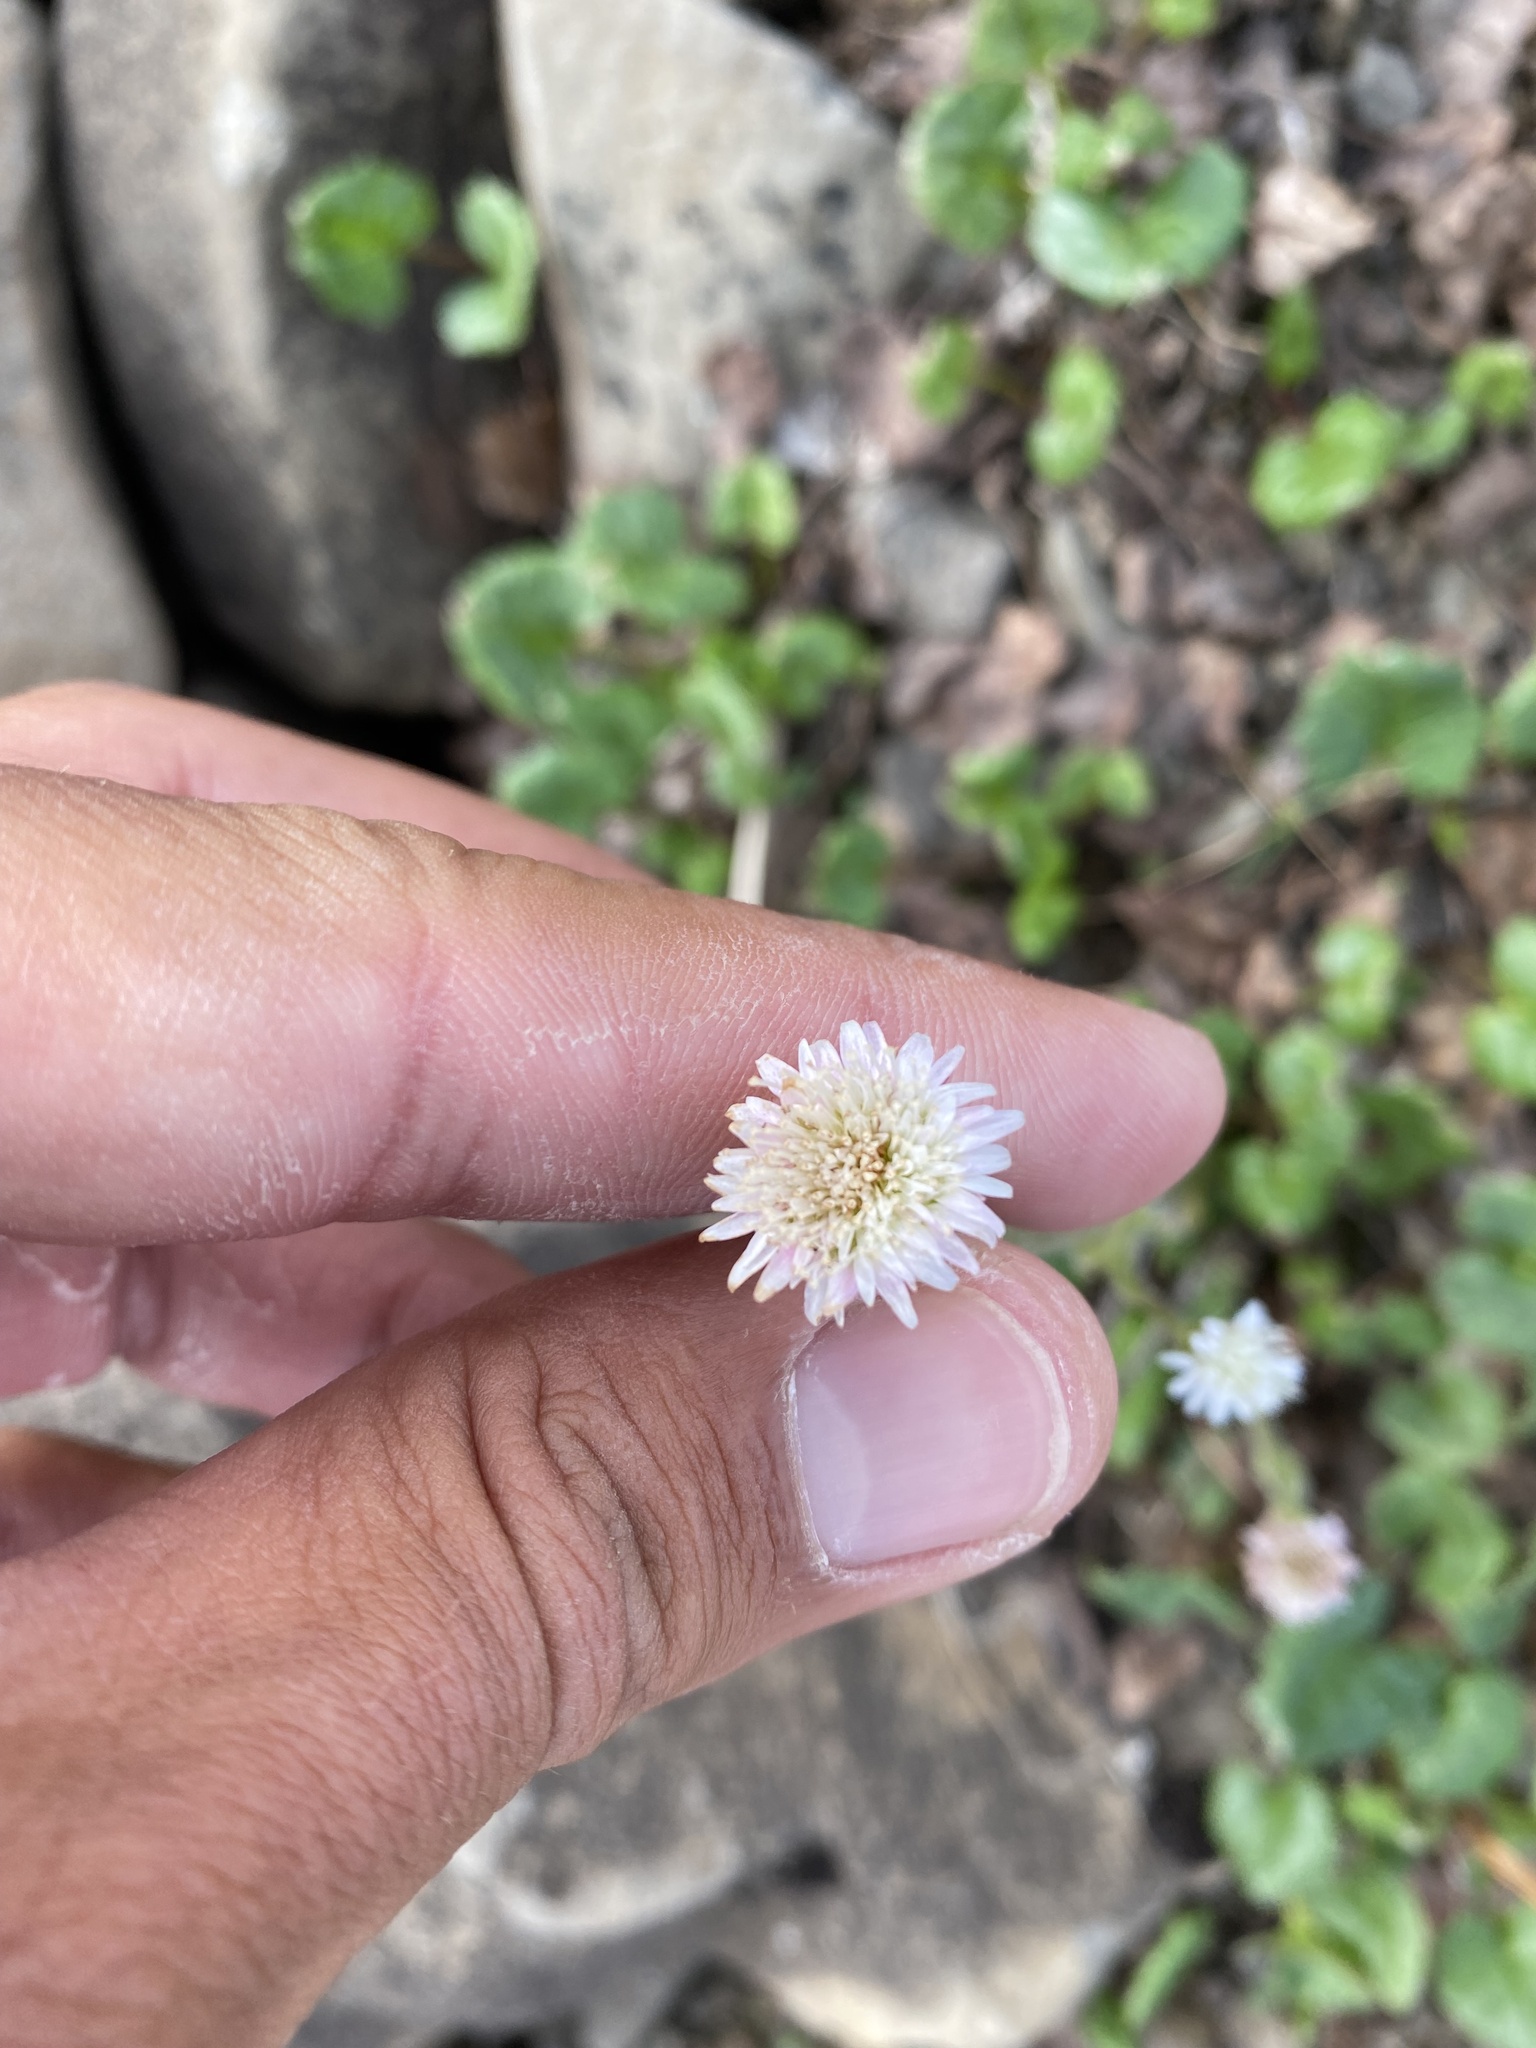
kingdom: Plantae
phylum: Tracheophyta
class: Magnoliopsida
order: Asterales
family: Asteraceae
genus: Endocellion
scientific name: Endocellion glaciale
